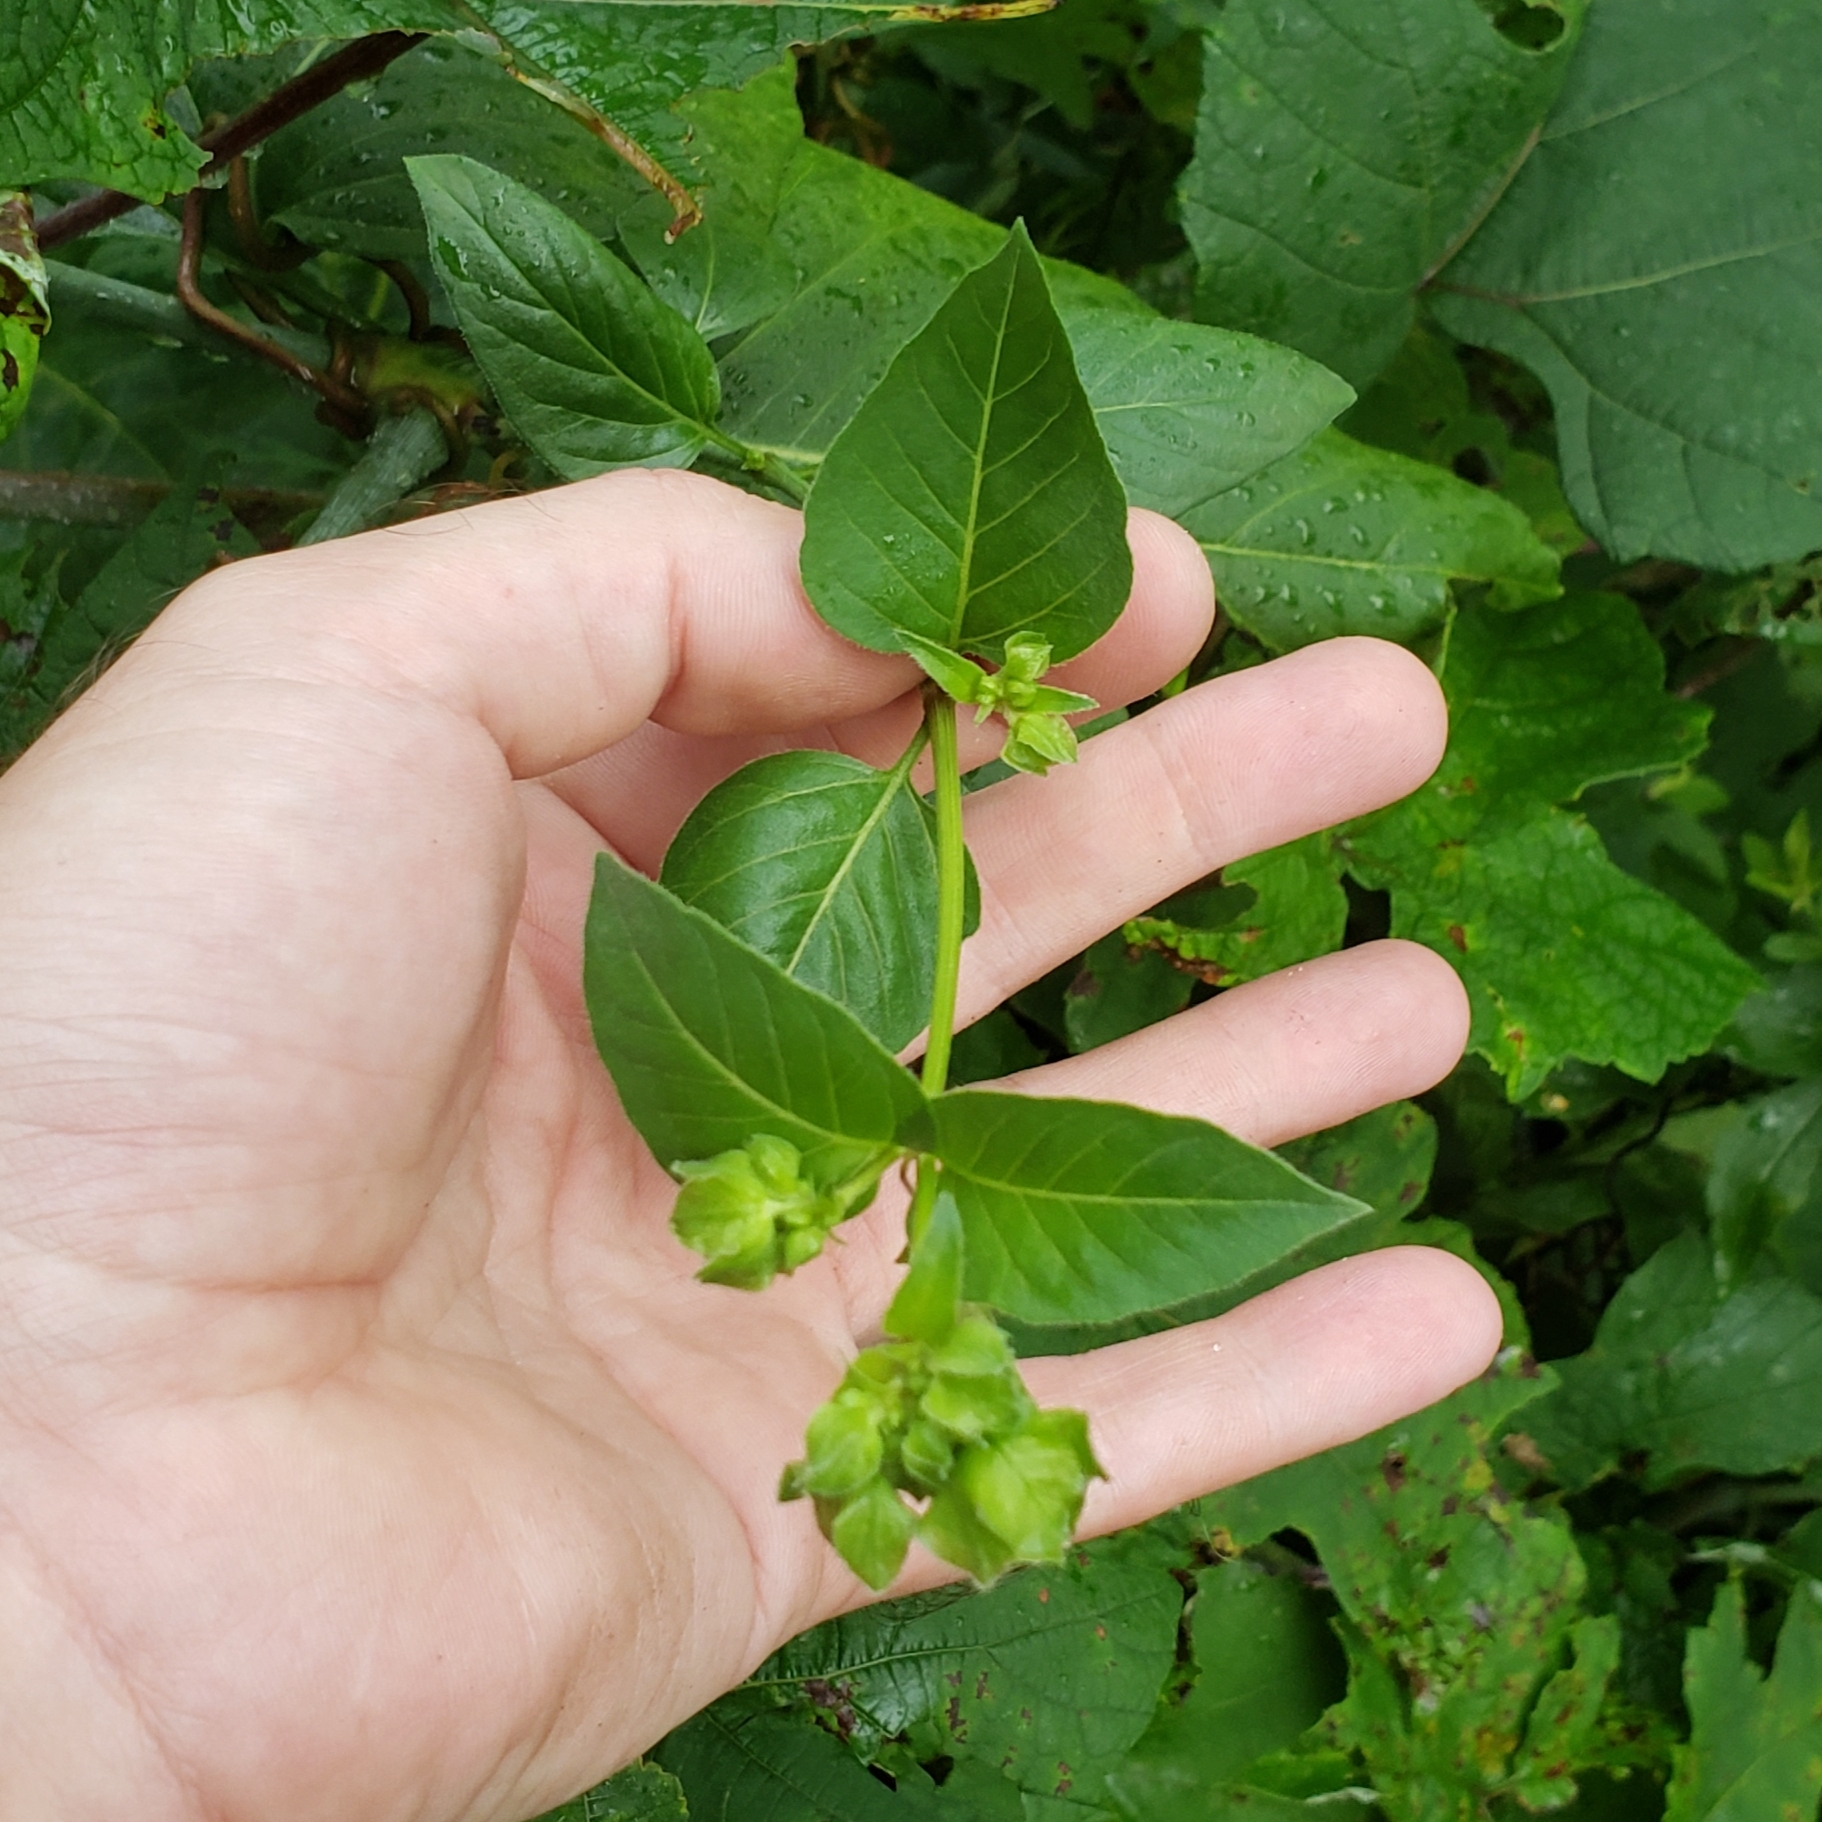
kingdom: Plantae
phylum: Tracheophyta
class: Magnoliopsida
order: Caryophyllales
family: Nyctaginaceae
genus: Mirabilis
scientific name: Mirabilis nyctaginea
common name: Umbrella wort
